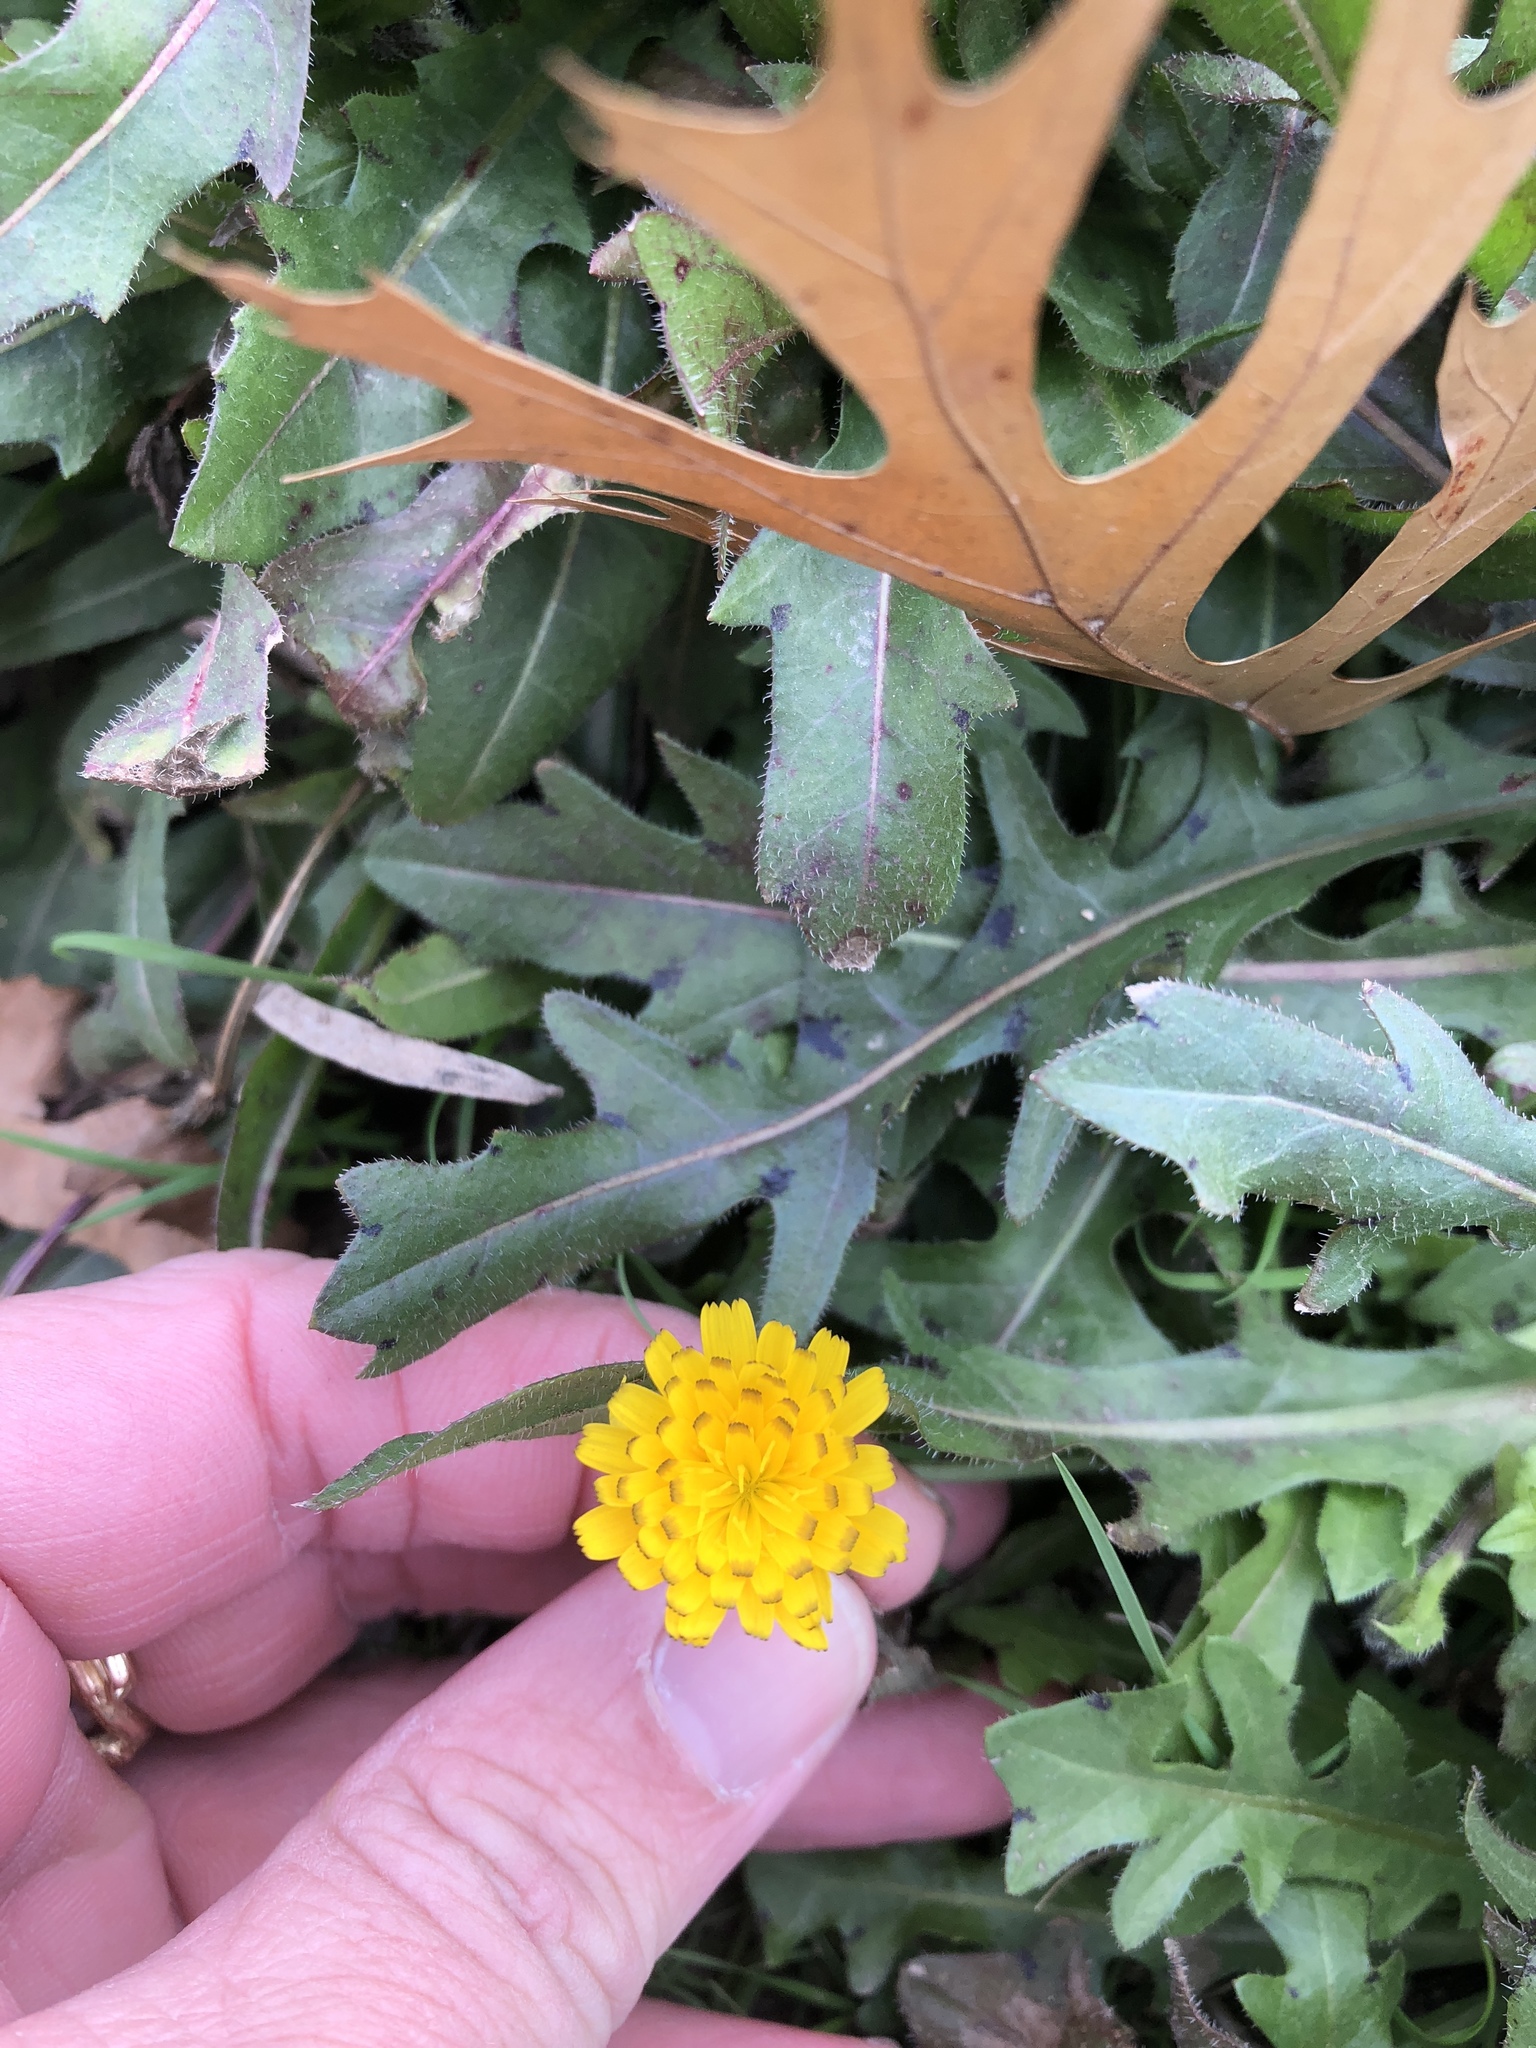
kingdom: Plantae
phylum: Tracheophyta
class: Magnoliopsida
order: Asterales
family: Asteraceae
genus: Hedypnois
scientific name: Hedypnois rhagadioloides
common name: Cretan weed
